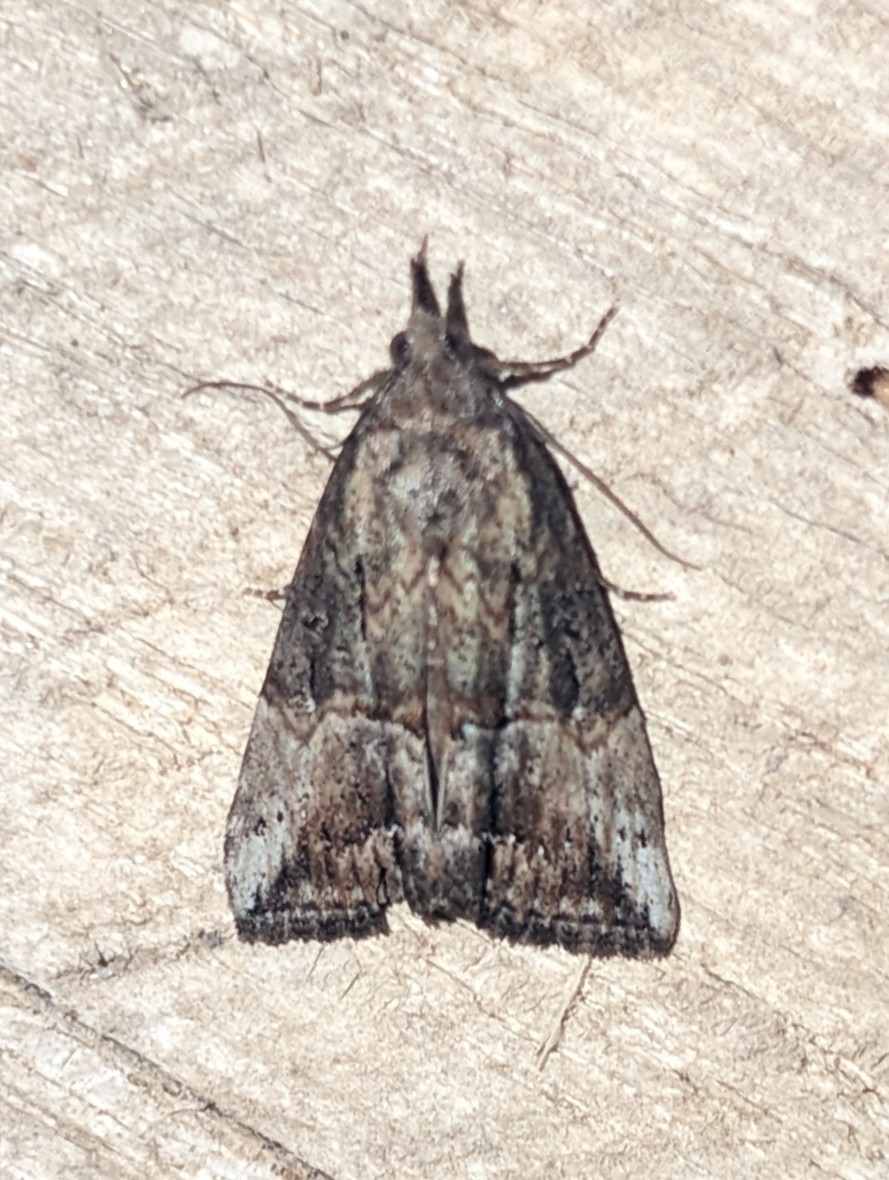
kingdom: Animalia
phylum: Arthropoda
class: Insecta
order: Lepidoptera
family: Erebidae
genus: Hypena
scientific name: Hypena scabra
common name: Green cloverworm
